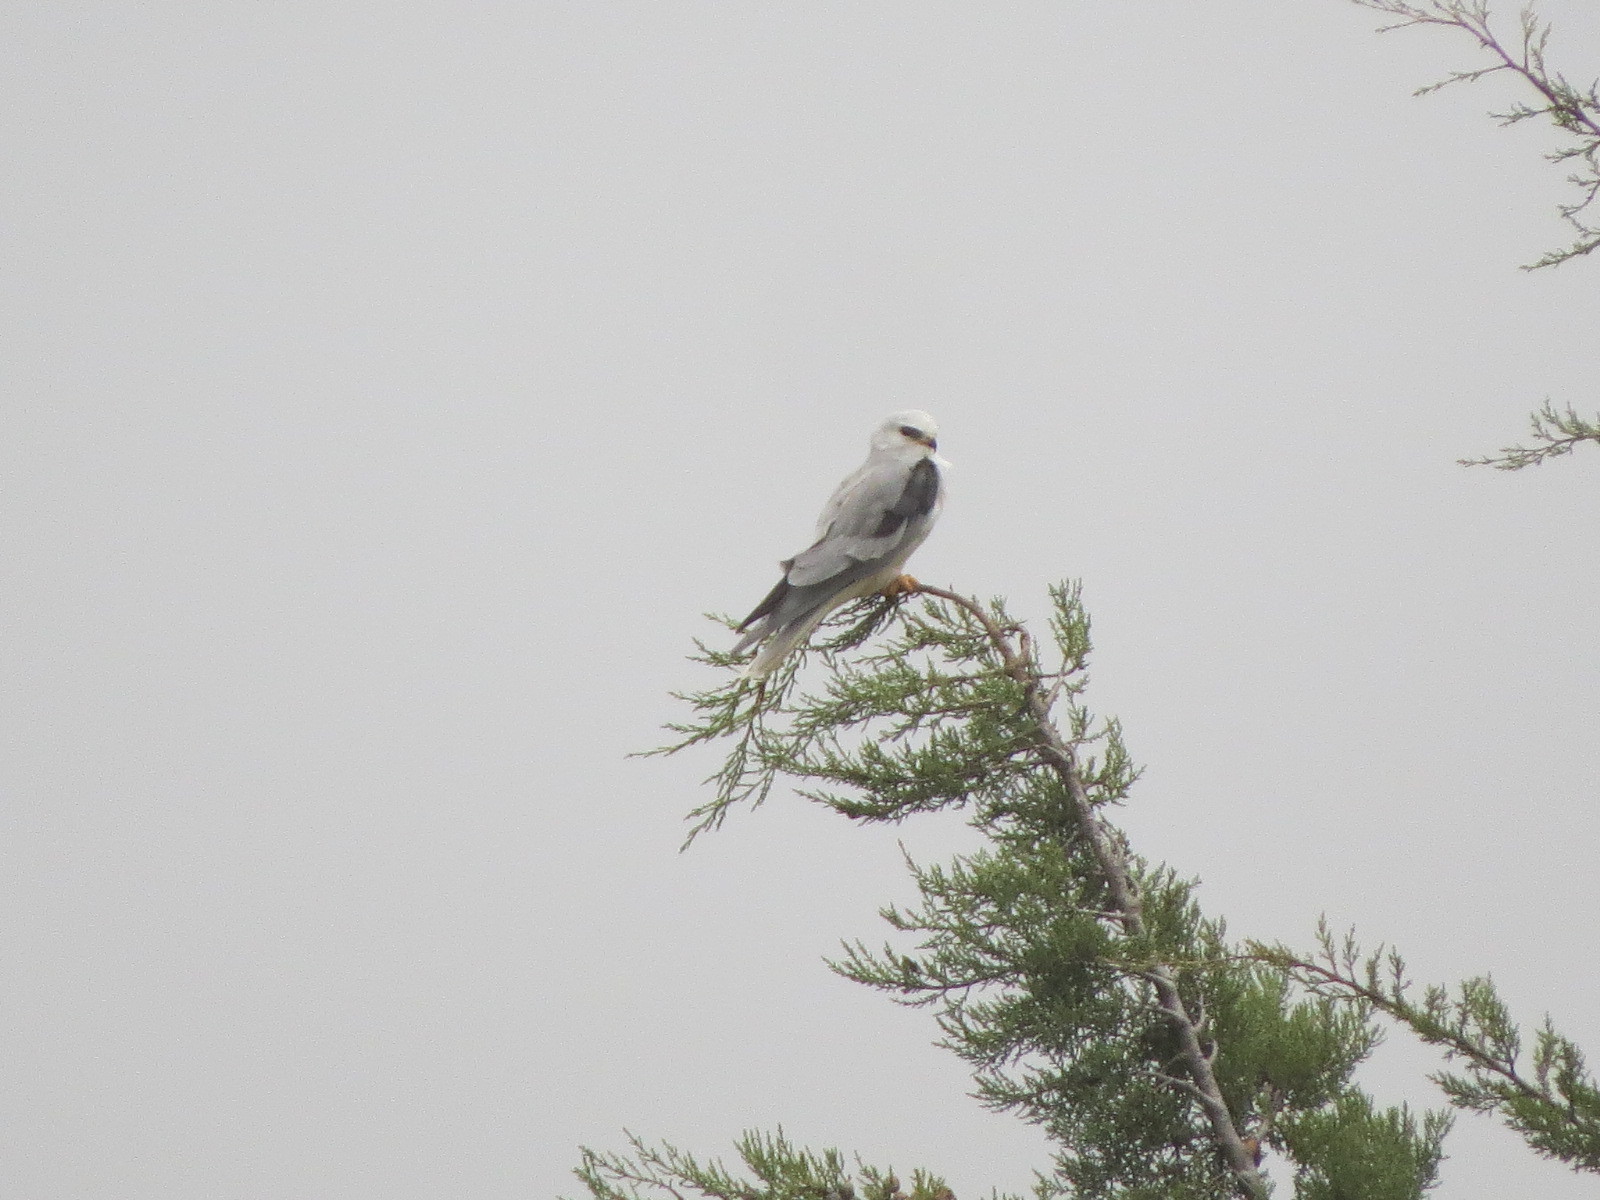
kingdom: Animalia
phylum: Chordata
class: Aves
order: Accipitriformes
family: Accipitridae
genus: Elanus
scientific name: Elanus leucurus
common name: White-tailed kite
